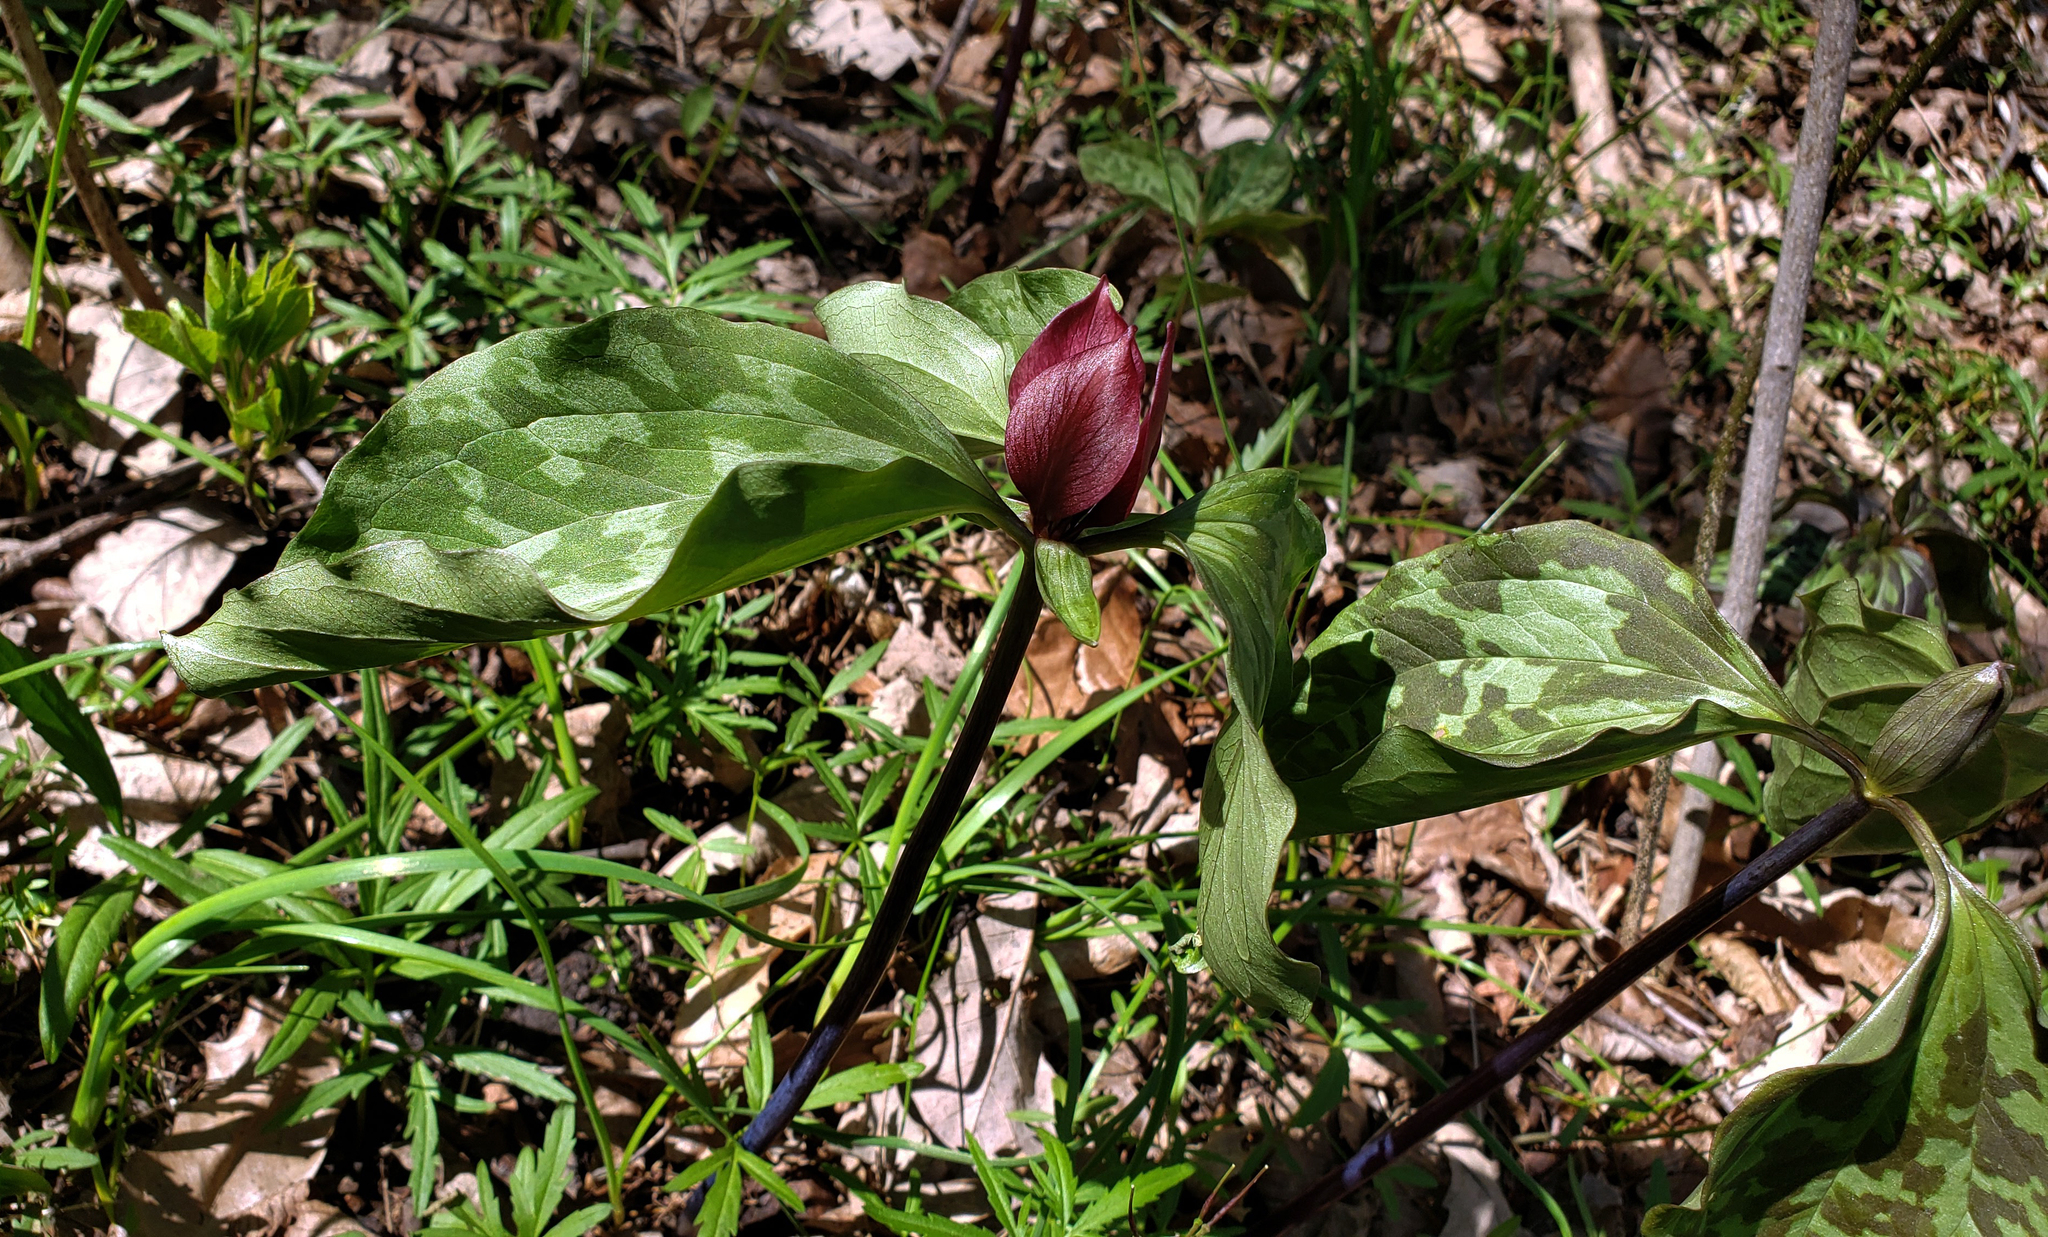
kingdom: Plantae
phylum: Tracheophyta
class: Liliopsida
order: Liliales
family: Melanthiaceae
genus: Trillium
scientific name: Trillium recurvatum
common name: Bloody butcher
